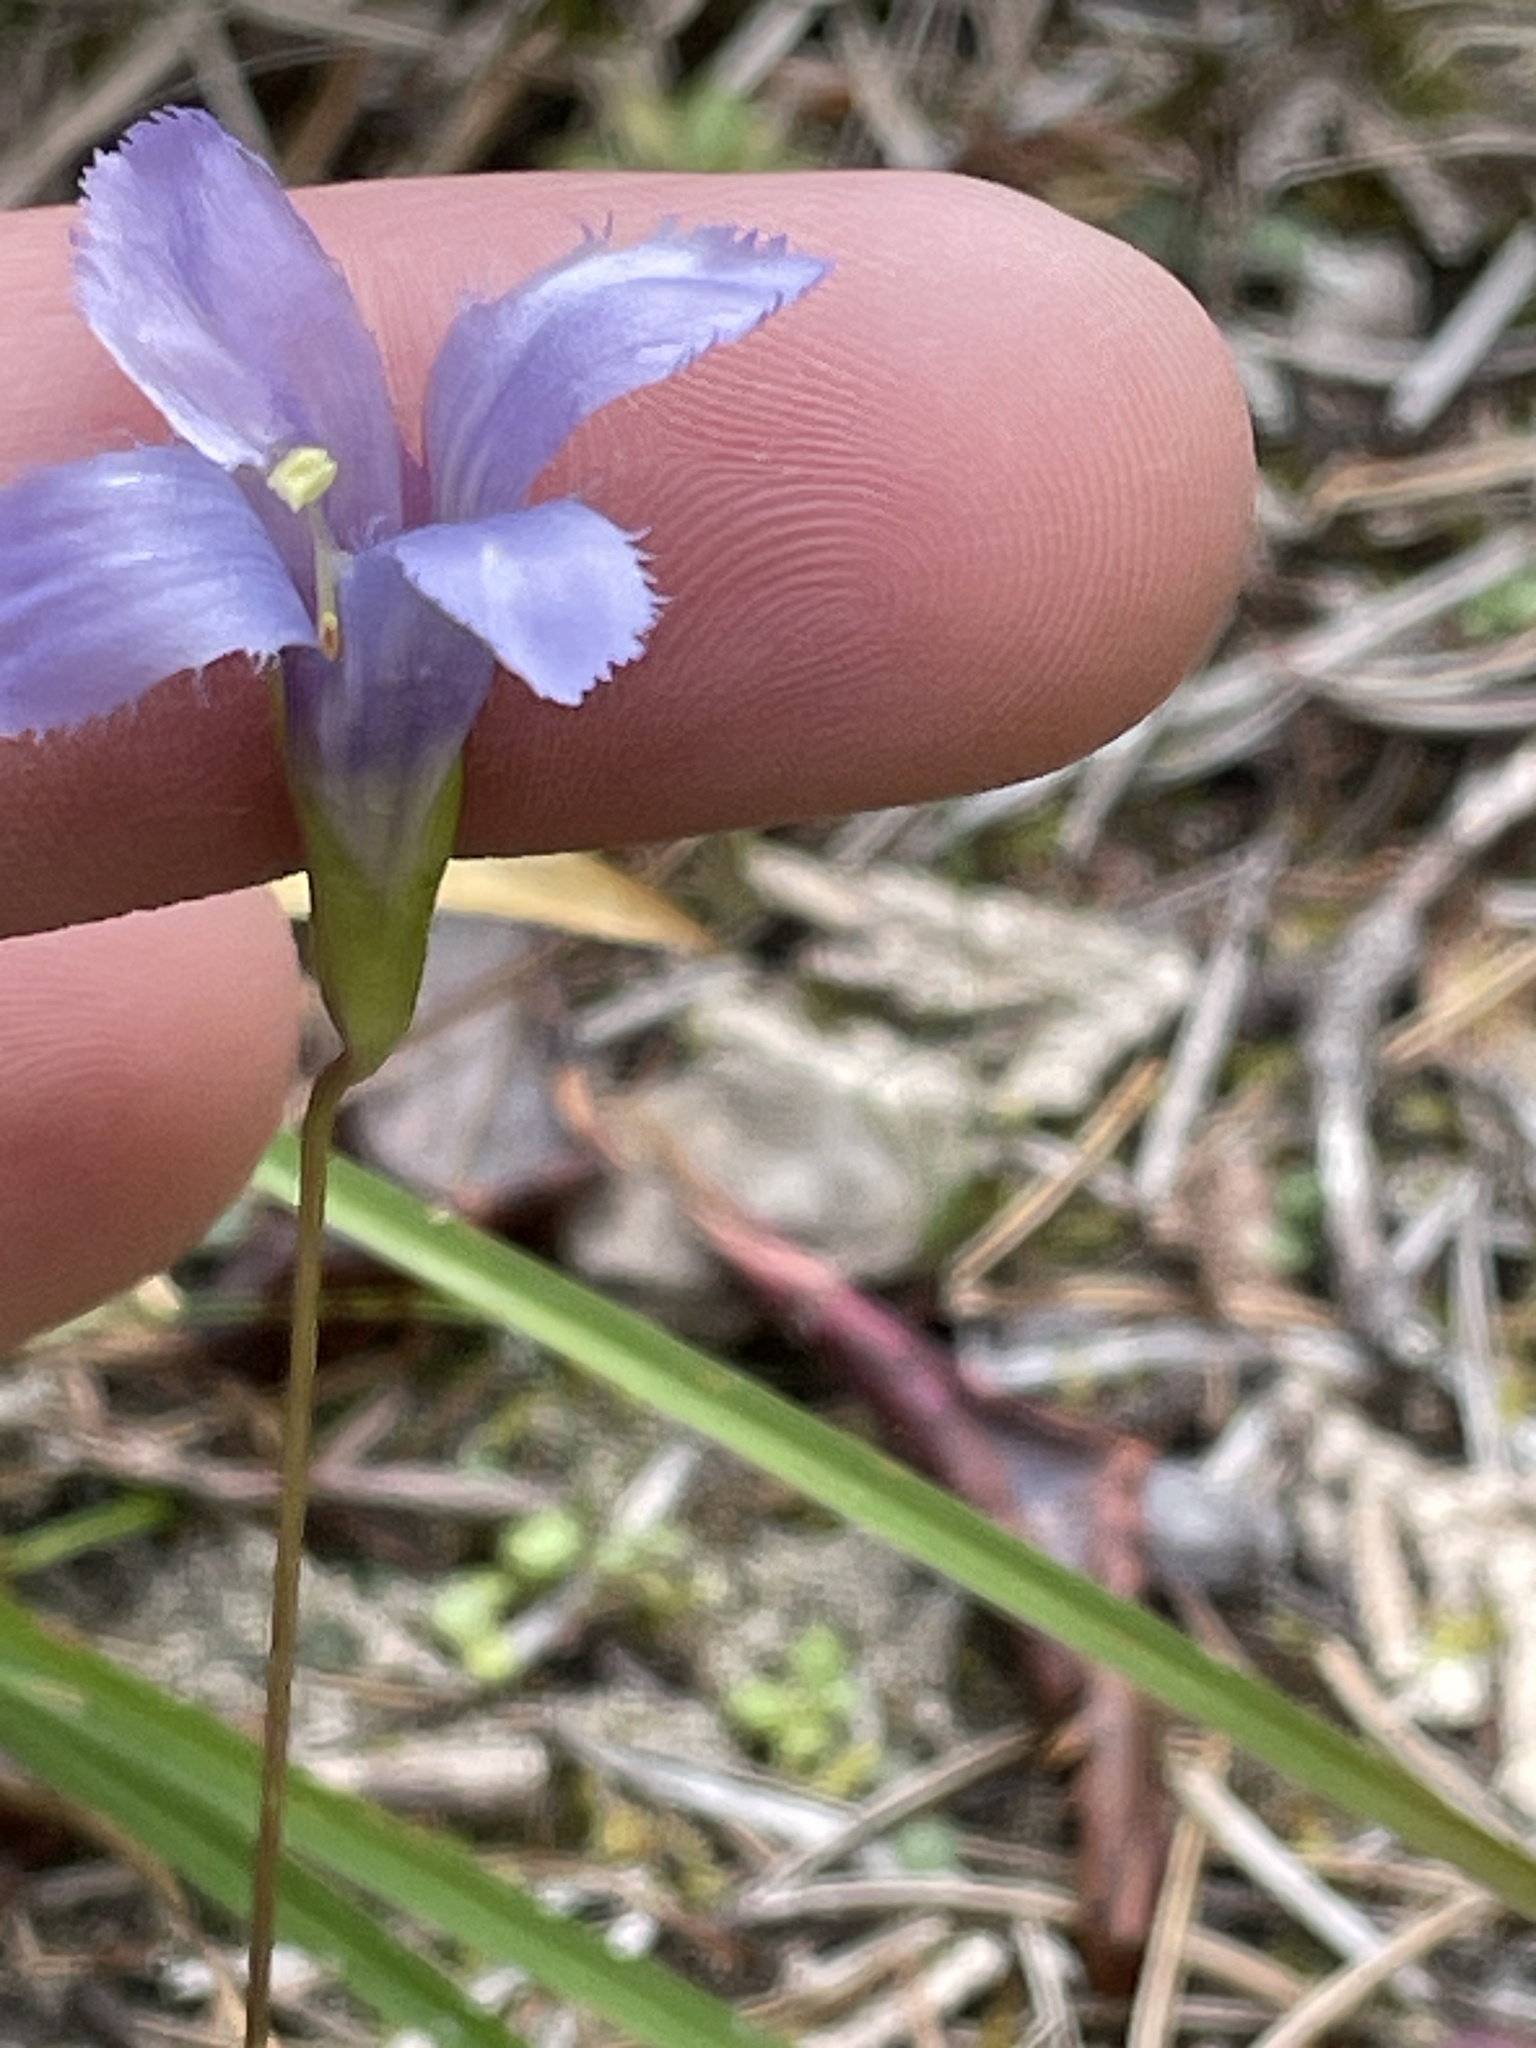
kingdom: Plantae
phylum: Tracheophyta
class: Magnoliopsida
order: Gentianales
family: Gentianaceae
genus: Gentianopsis
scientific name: Gentianopsis virgata
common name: Lesser fringed-gentian
